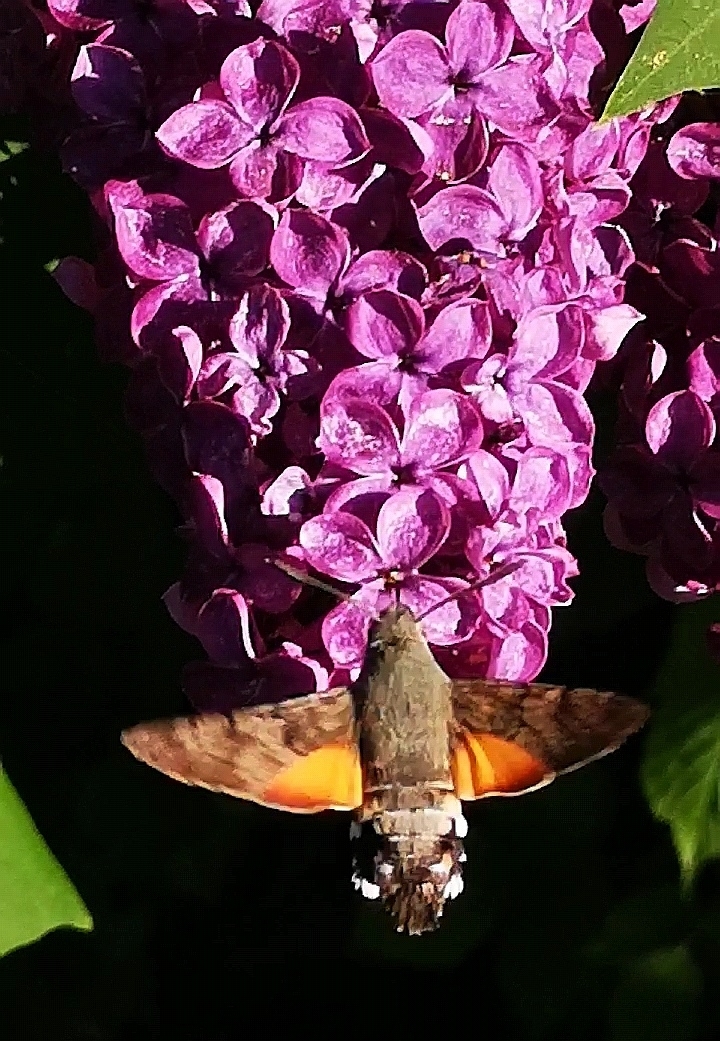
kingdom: Animalia
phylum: Arthropoda
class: Insecta
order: Lepidoptera
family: Sphingidae
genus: Macroglossum
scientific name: Macroglossum stellatarum
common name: Humming-bird hawk-moth
